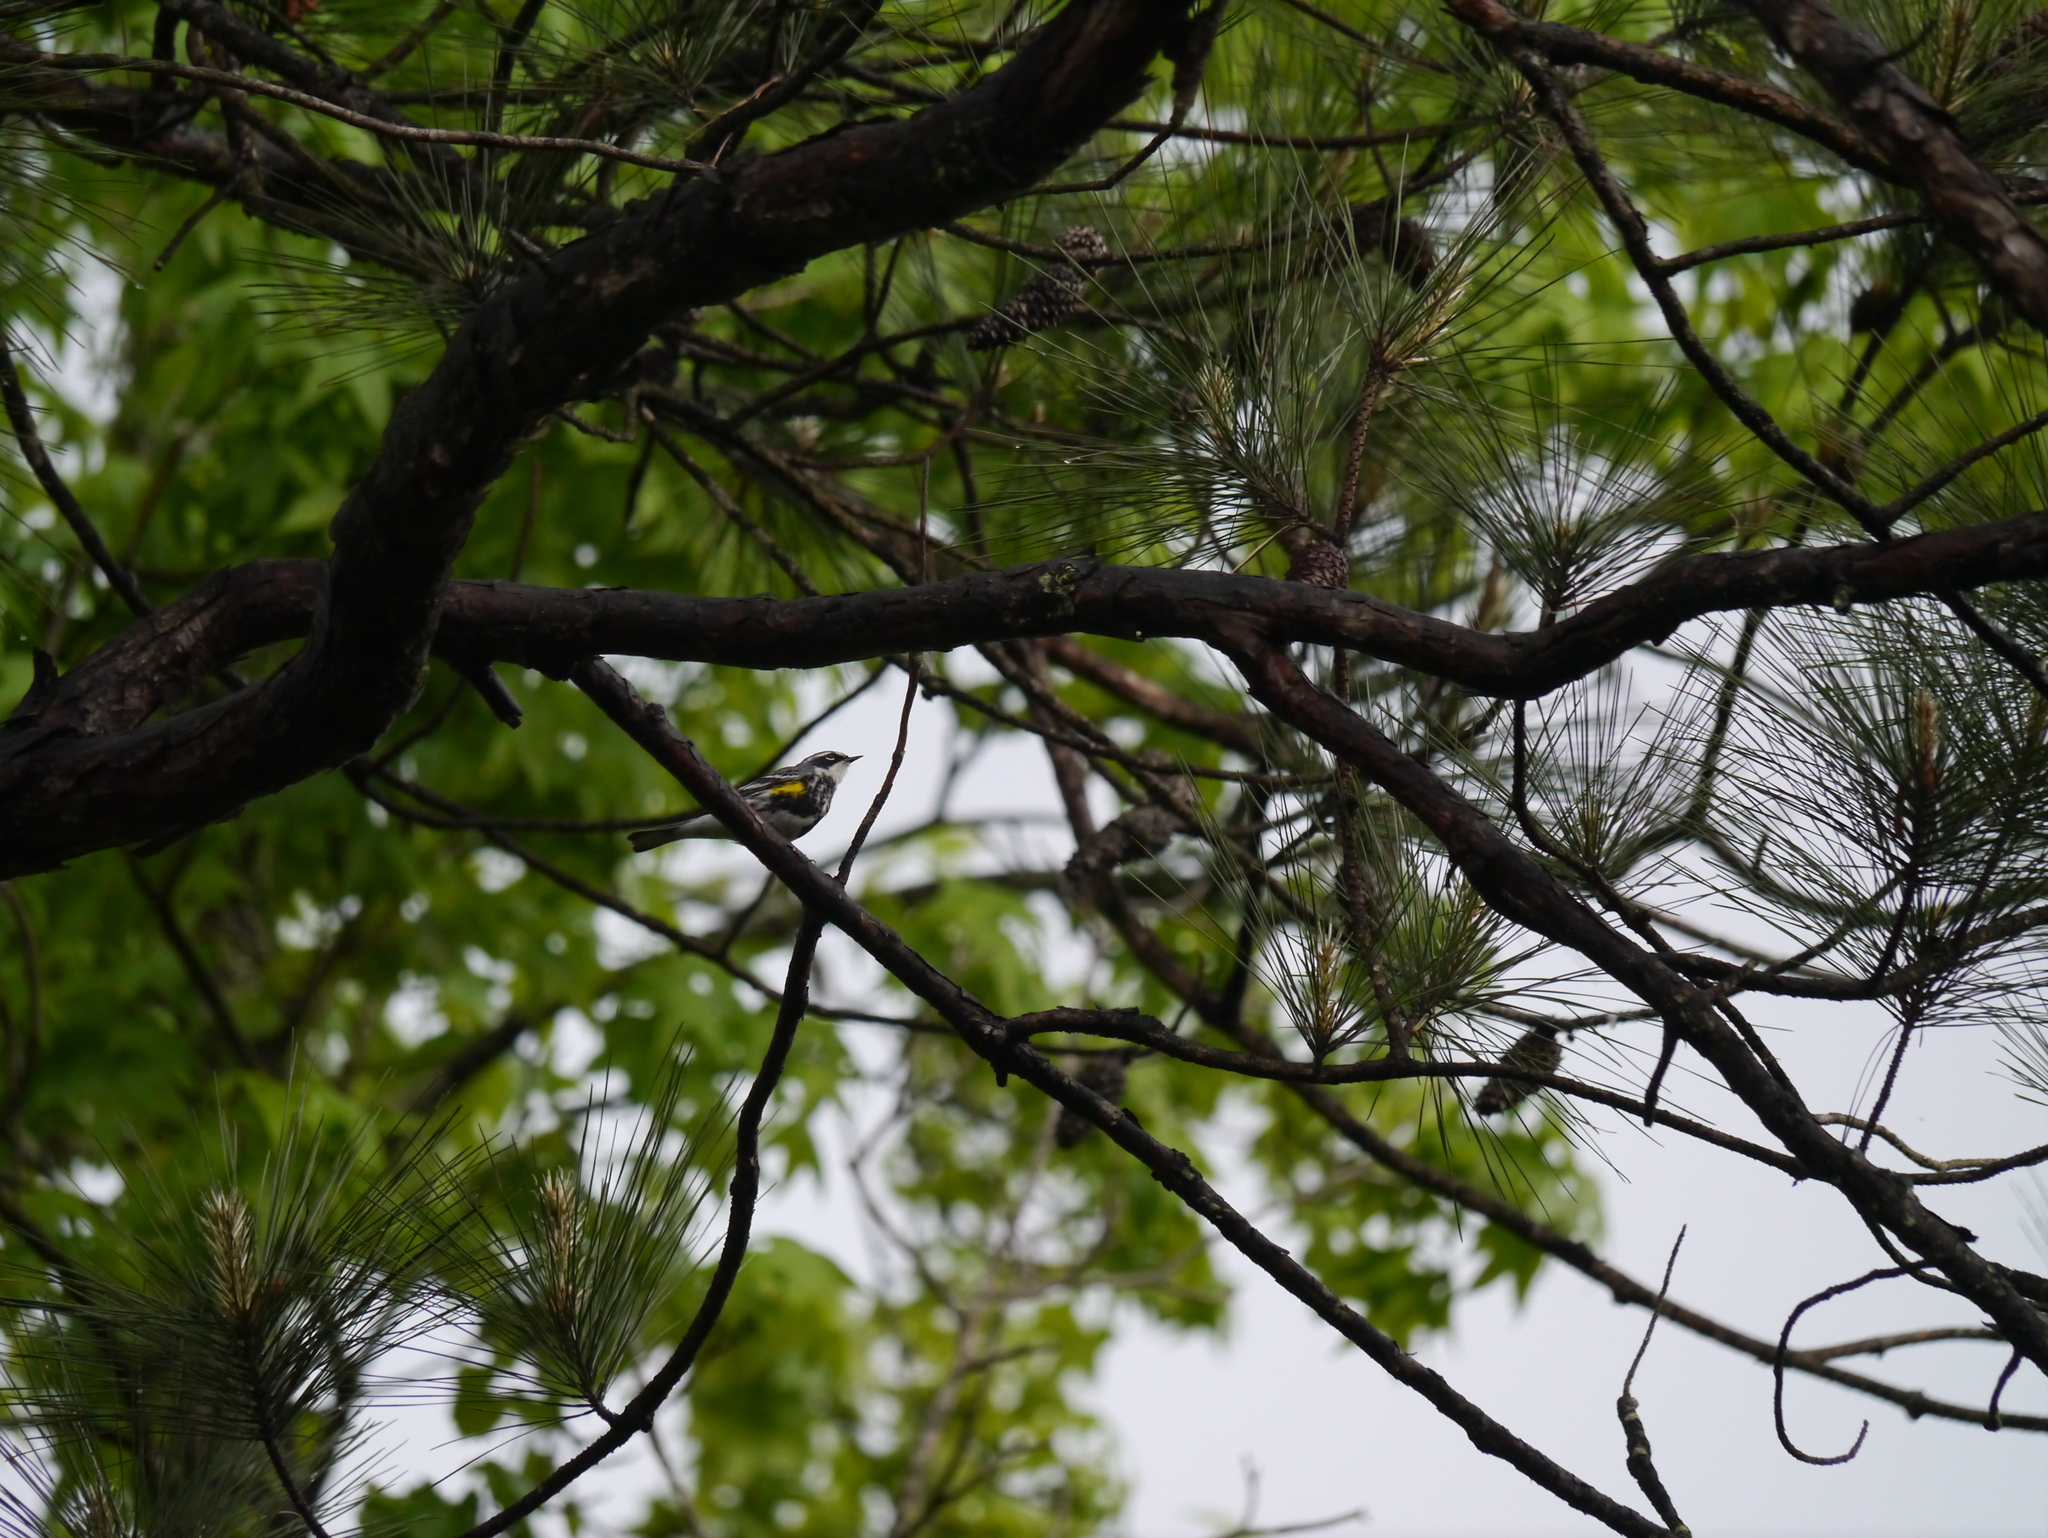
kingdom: Animalia
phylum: Chordata
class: Aves
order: Passeriformes
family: Parulidae
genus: Setophaga
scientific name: Setophaga coronata
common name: Myrtle warbler
